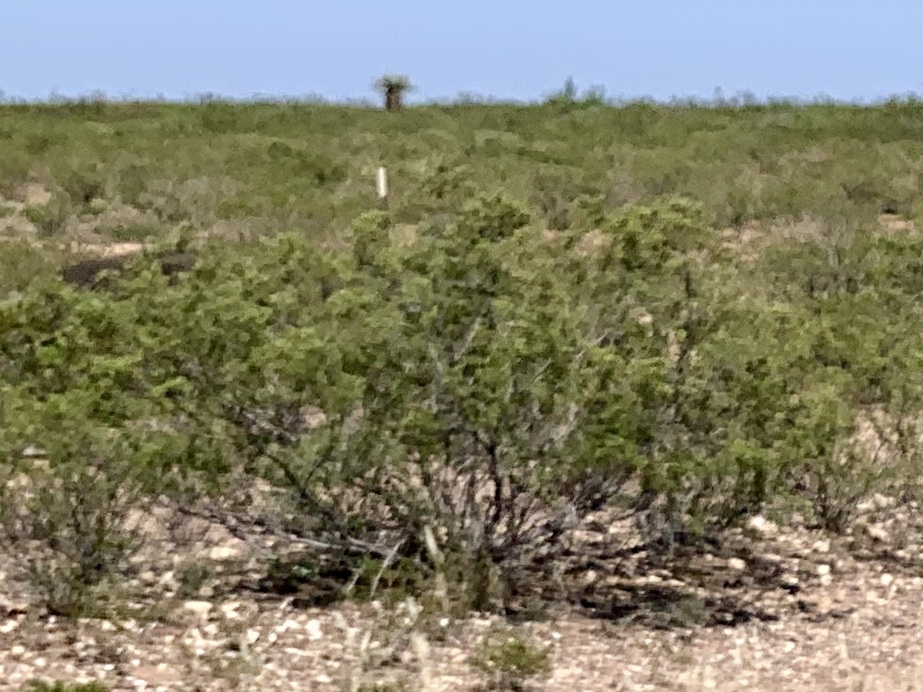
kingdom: Plantae
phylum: Tracheophyta
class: Magnoliopsida
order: Zygophyllales
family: Zygophyllaceae
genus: Larrea
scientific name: Larrea tridentata
